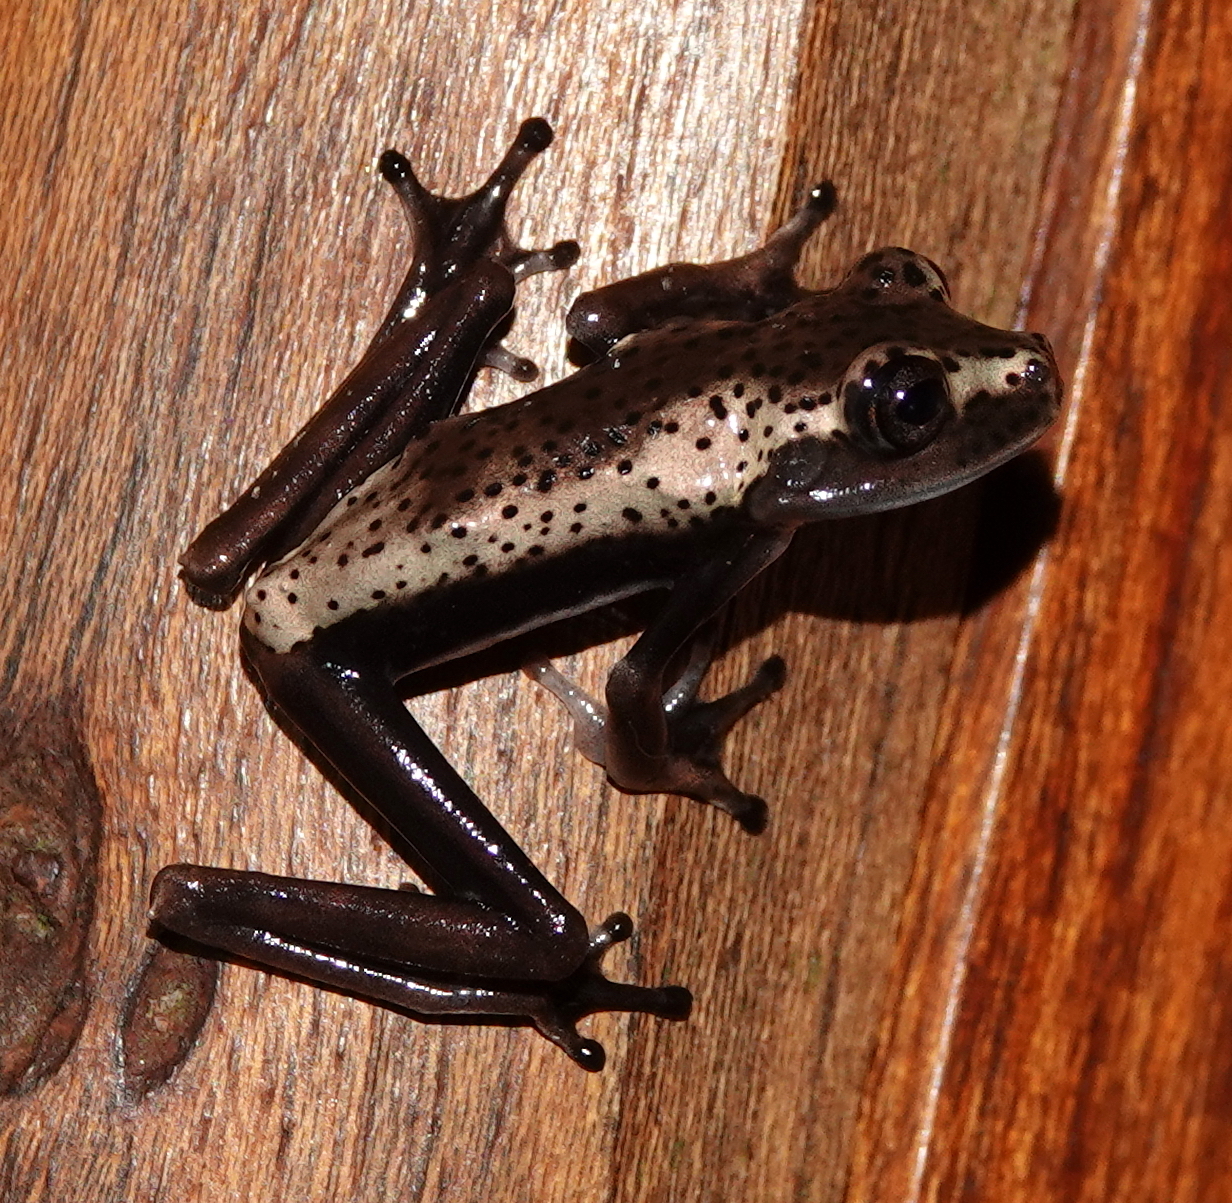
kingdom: Animalia
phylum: Chordata
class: Amphibia
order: Anura
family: Hylidae
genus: Boana
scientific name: Boana appendiculata
